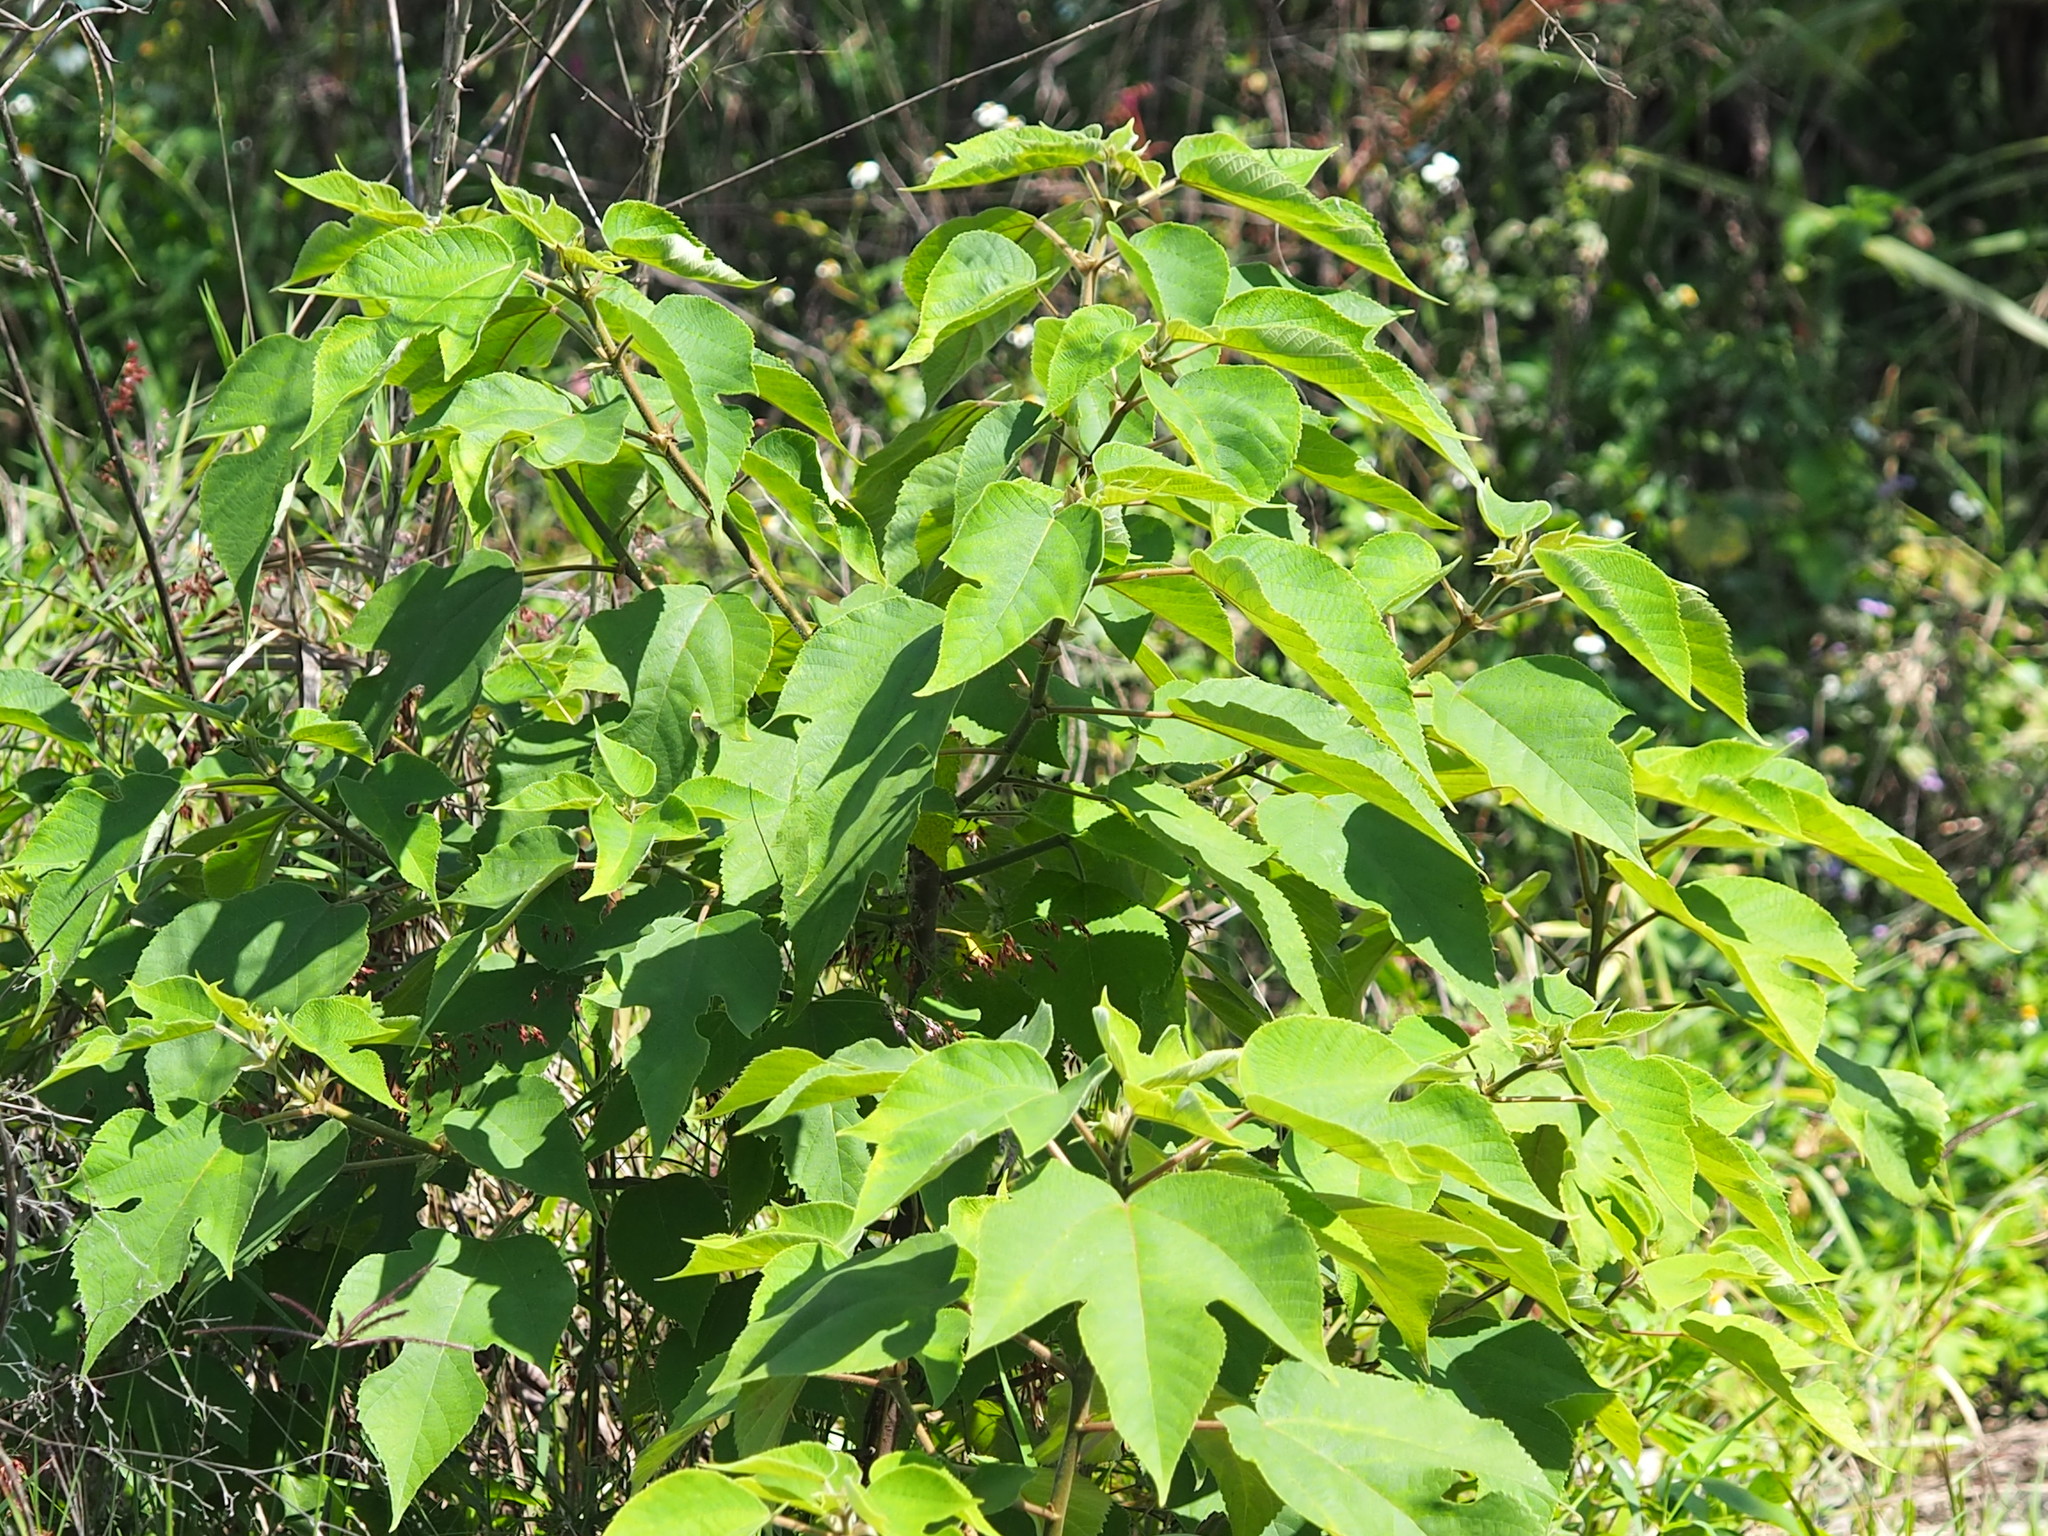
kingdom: Plantae
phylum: Tracheophyta
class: Magnoliopsida
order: Rosales
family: Moraceae
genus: Broussonetia
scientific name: Broussonetia papyrifera
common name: Paper mulberry
